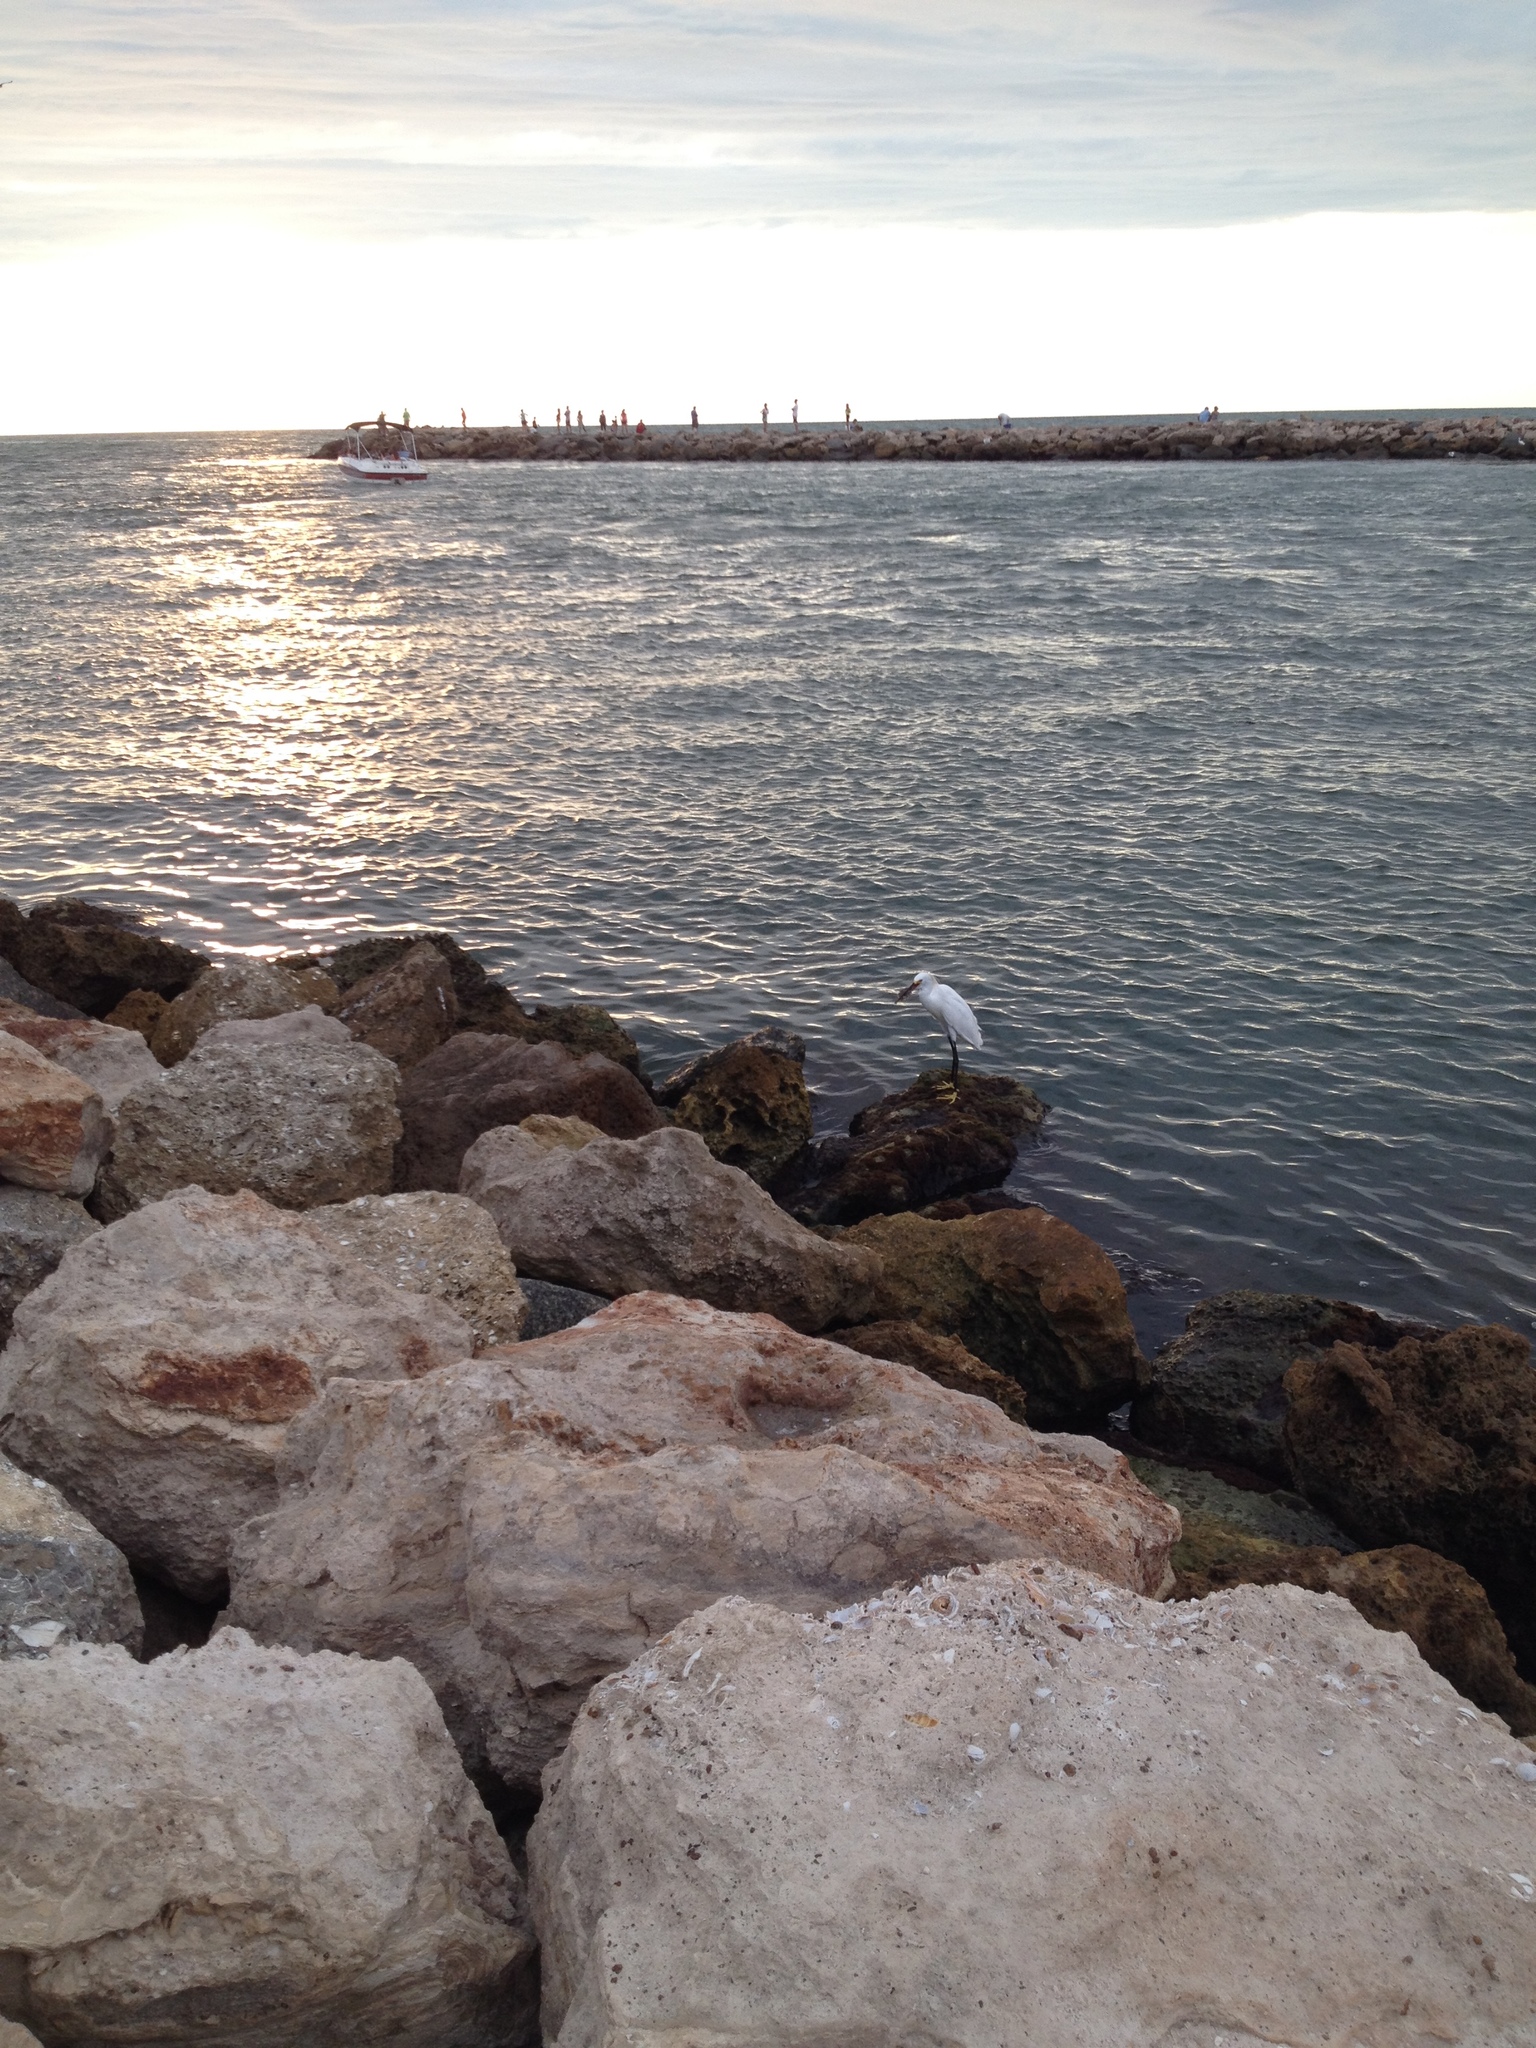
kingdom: Animalia
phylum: Chordata
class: Aves
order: Pelecaniformes
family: Ardeidae
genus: Egretta
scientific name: Egretta thula
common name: Snowy egret
